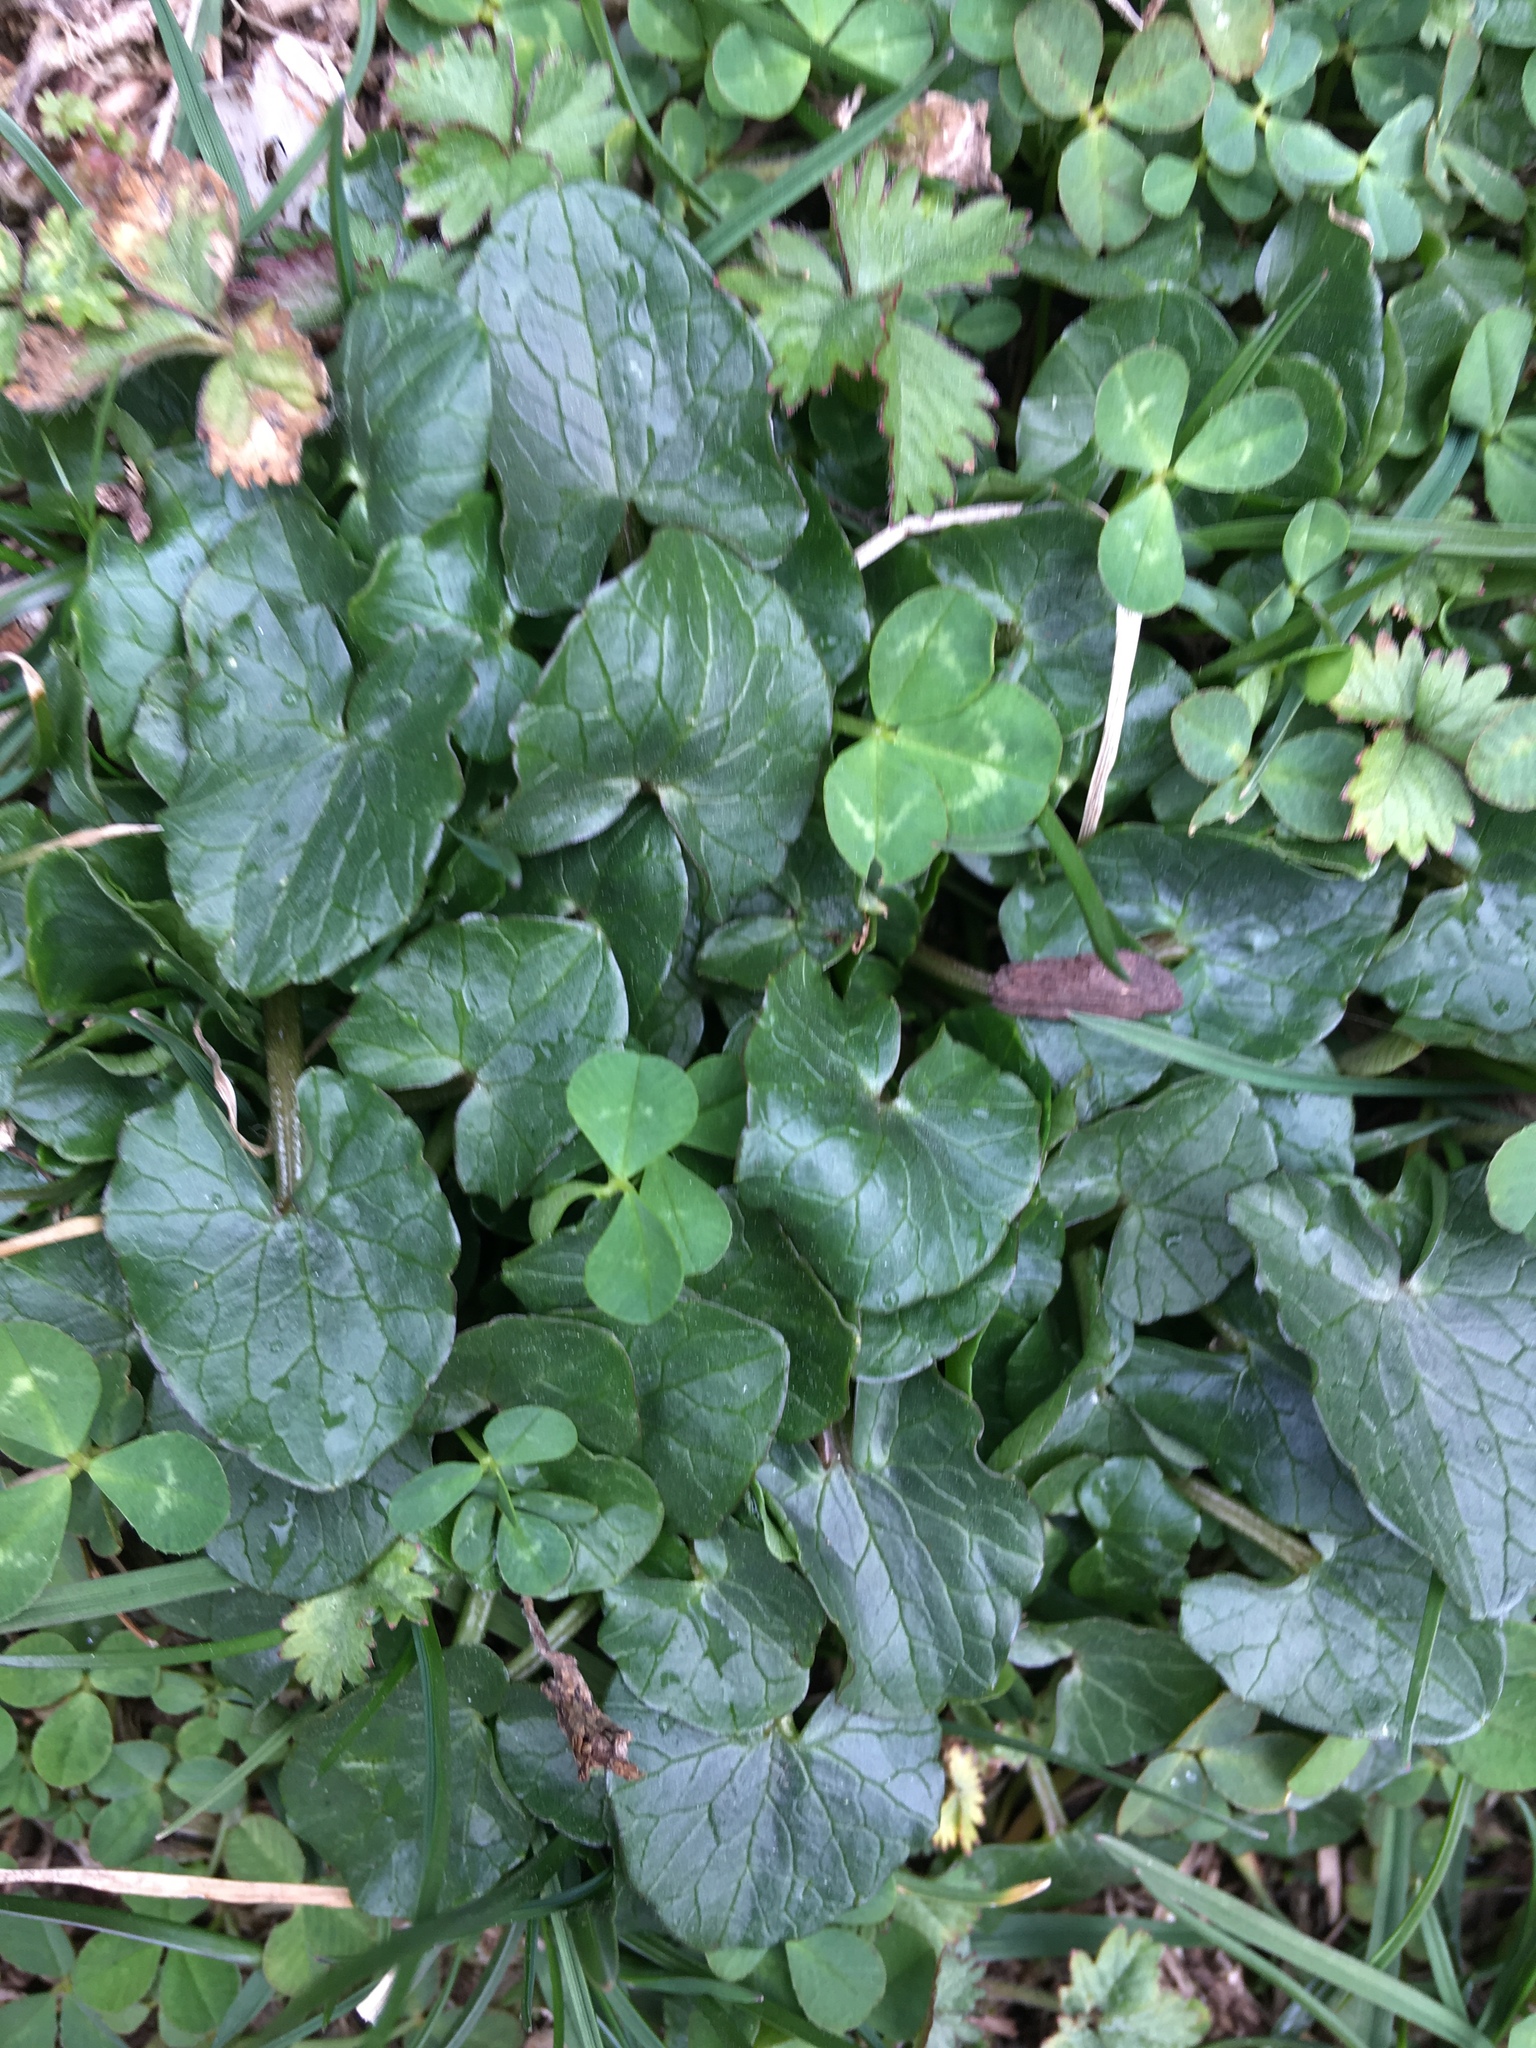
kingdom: Plantae
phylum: Tracheophyta
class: Magnoliopsida
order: Ranunculales
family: Ranunculaceae
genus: Ficaria
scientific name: Ficaria verna
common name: Lesser celandine
